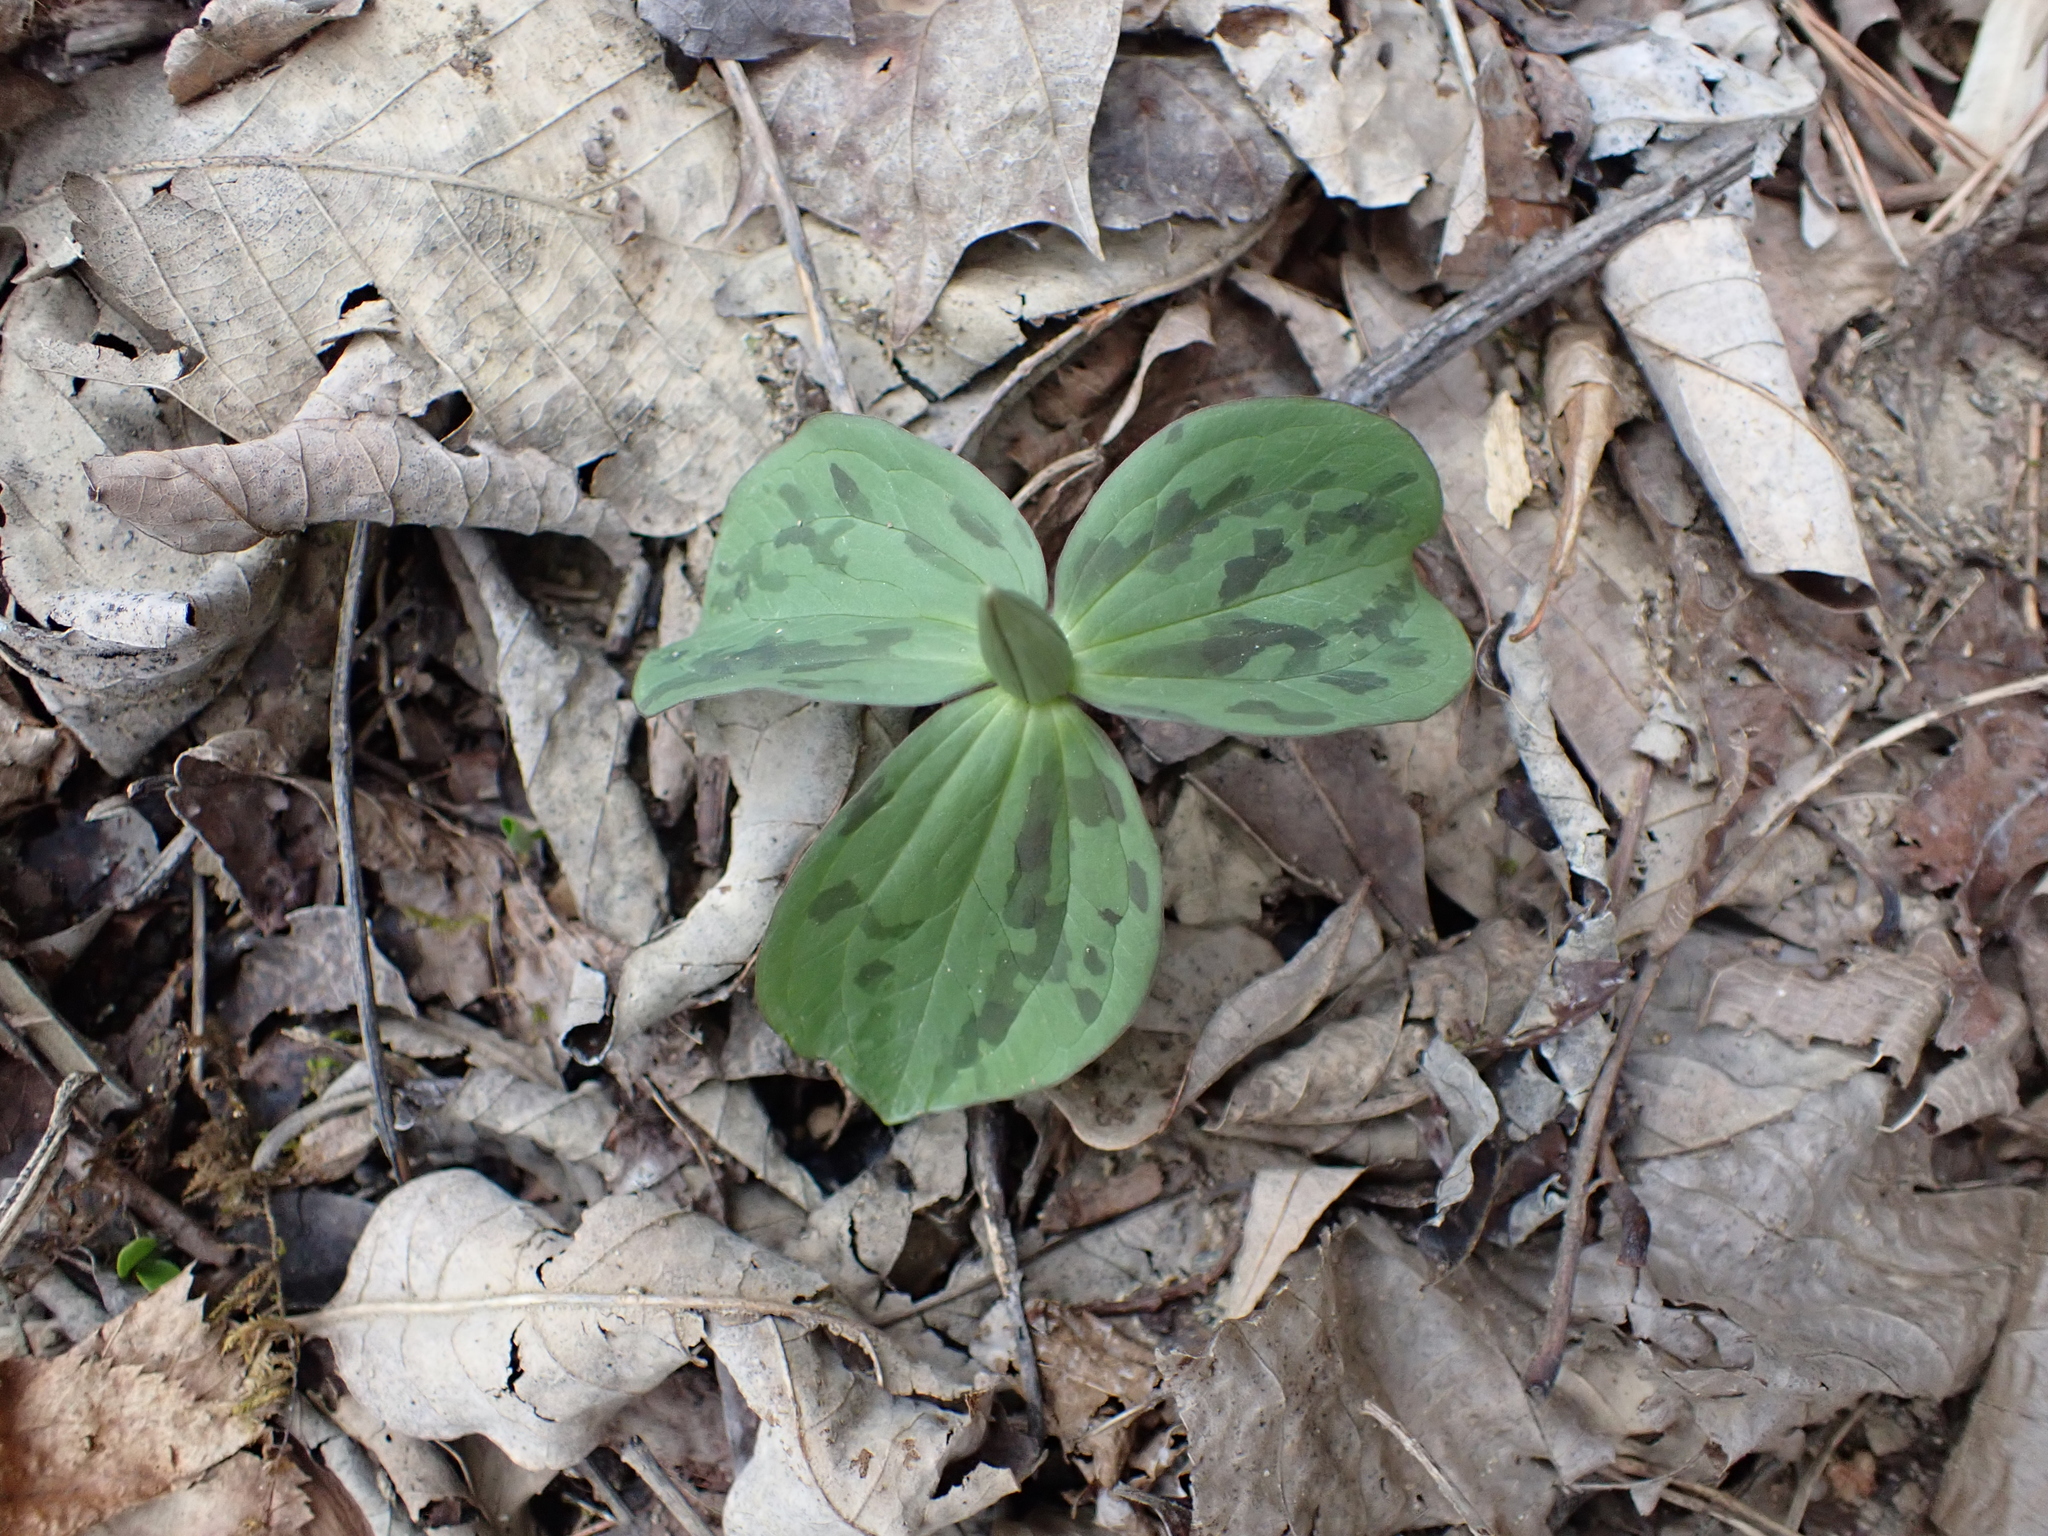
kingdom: Plantae
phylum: Tracheophyta
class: Liliopsida
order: Liliales
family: Melanthiaceae
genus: Trillium
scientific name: Trillium sessile
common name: Sessile trillium
